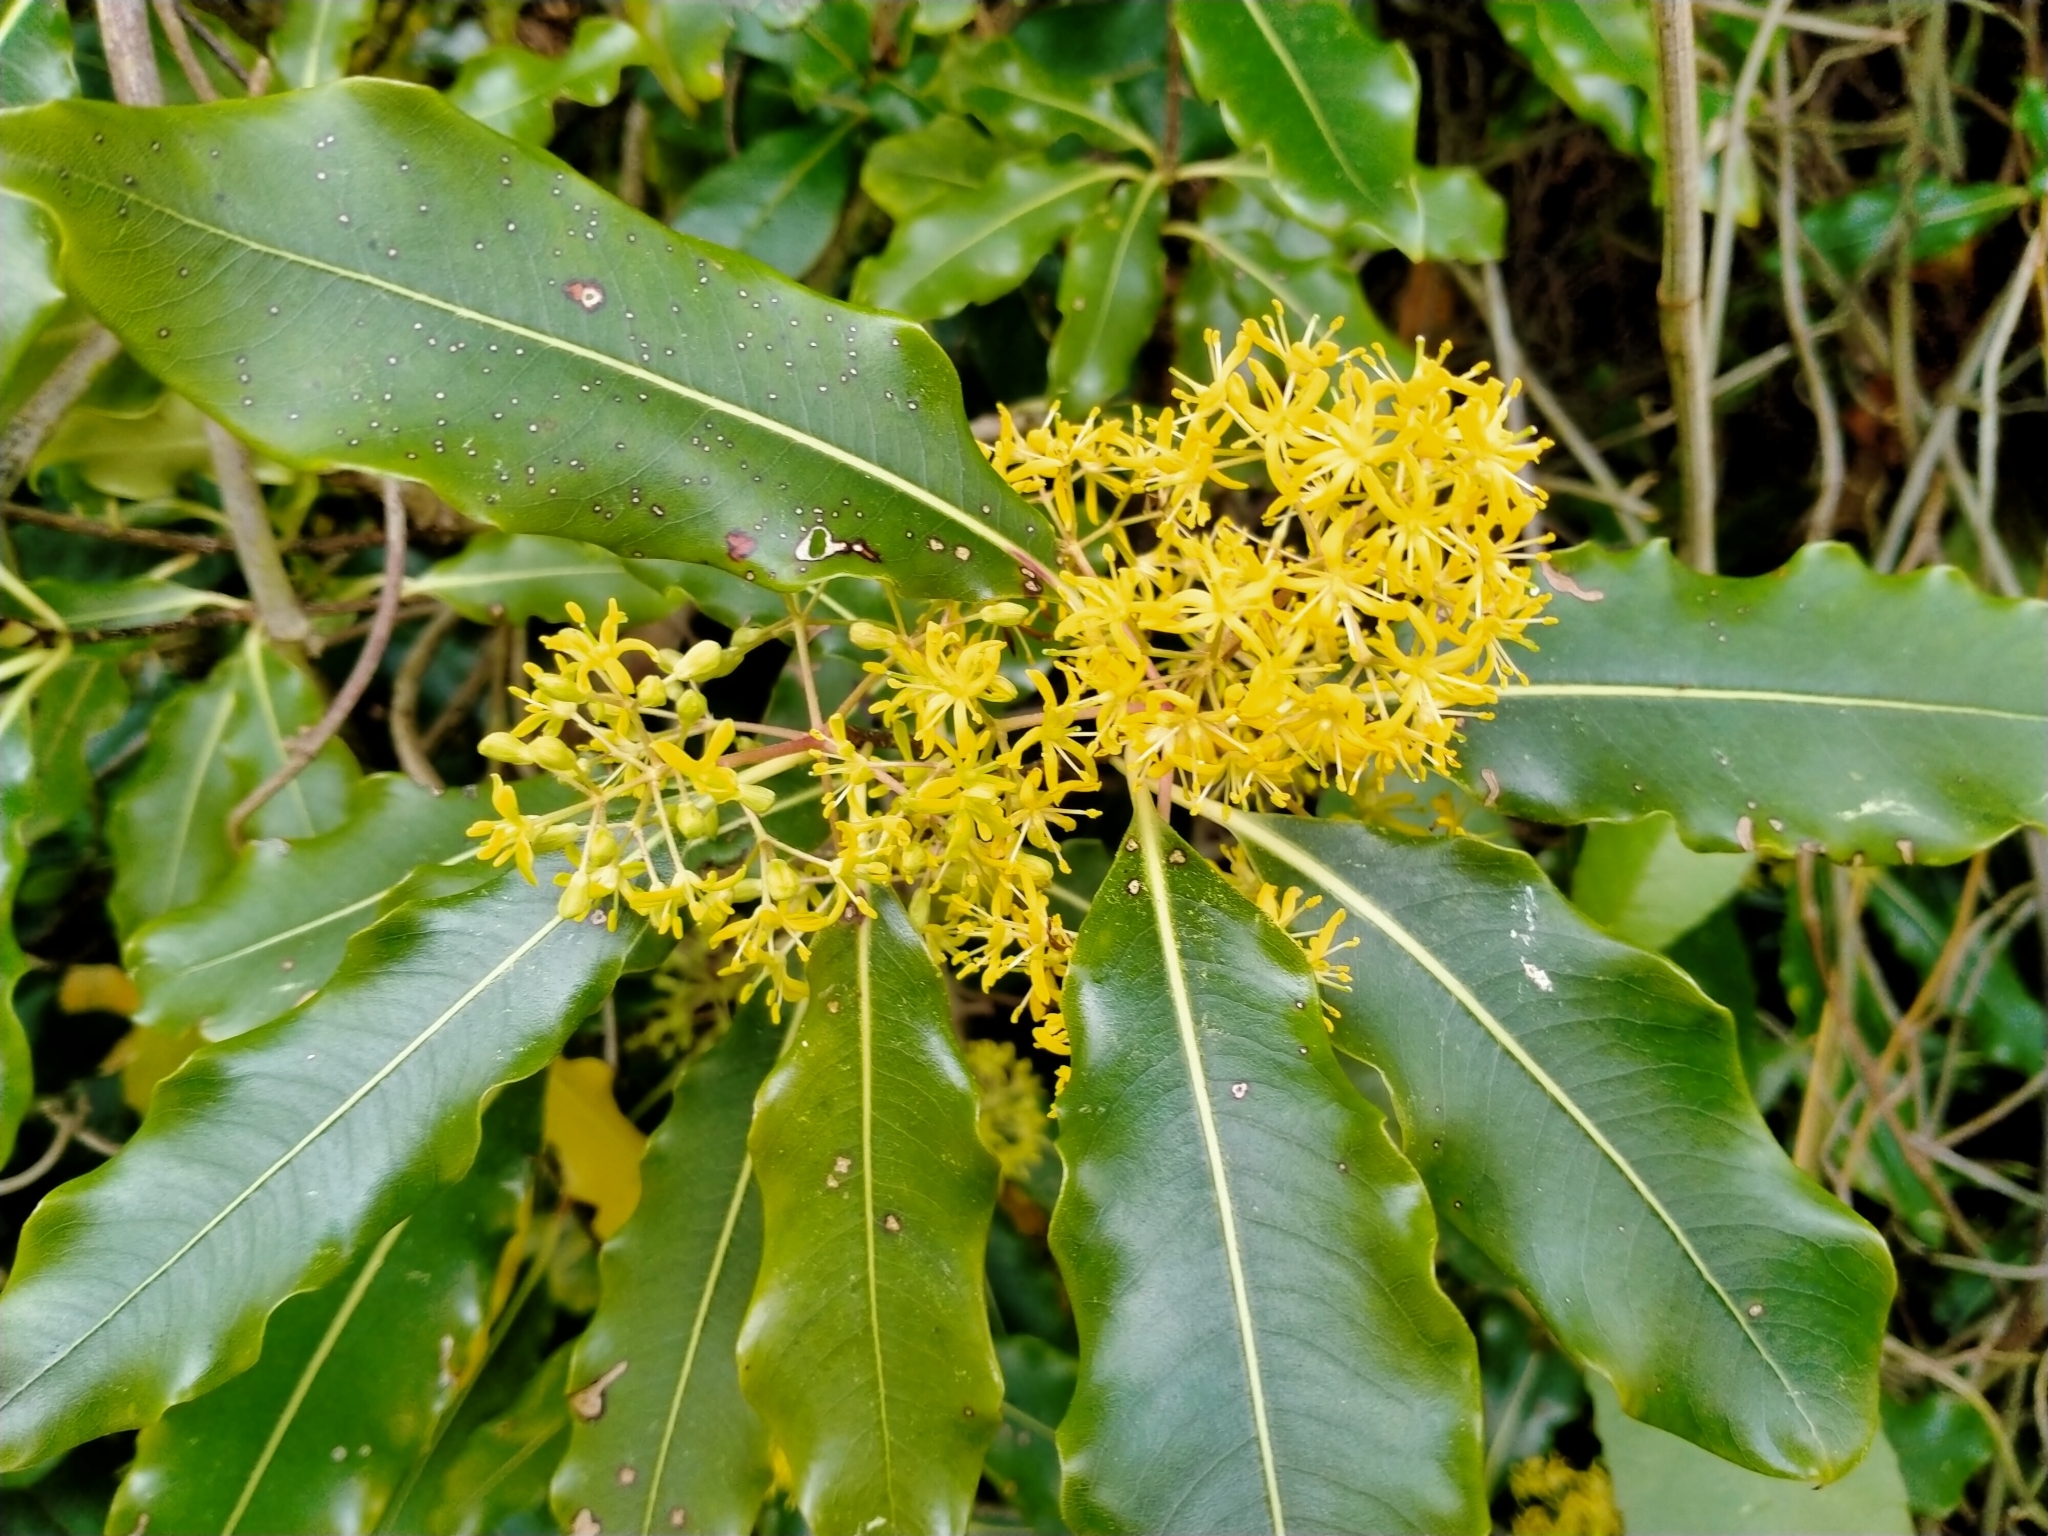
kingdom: Plantae
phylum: Tracheophyta
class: Magnoliopsida
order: Apiales
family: Pittosporaceae
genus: Pittosporum
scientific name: Pittosporum eugenioides
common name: Lemonwood
